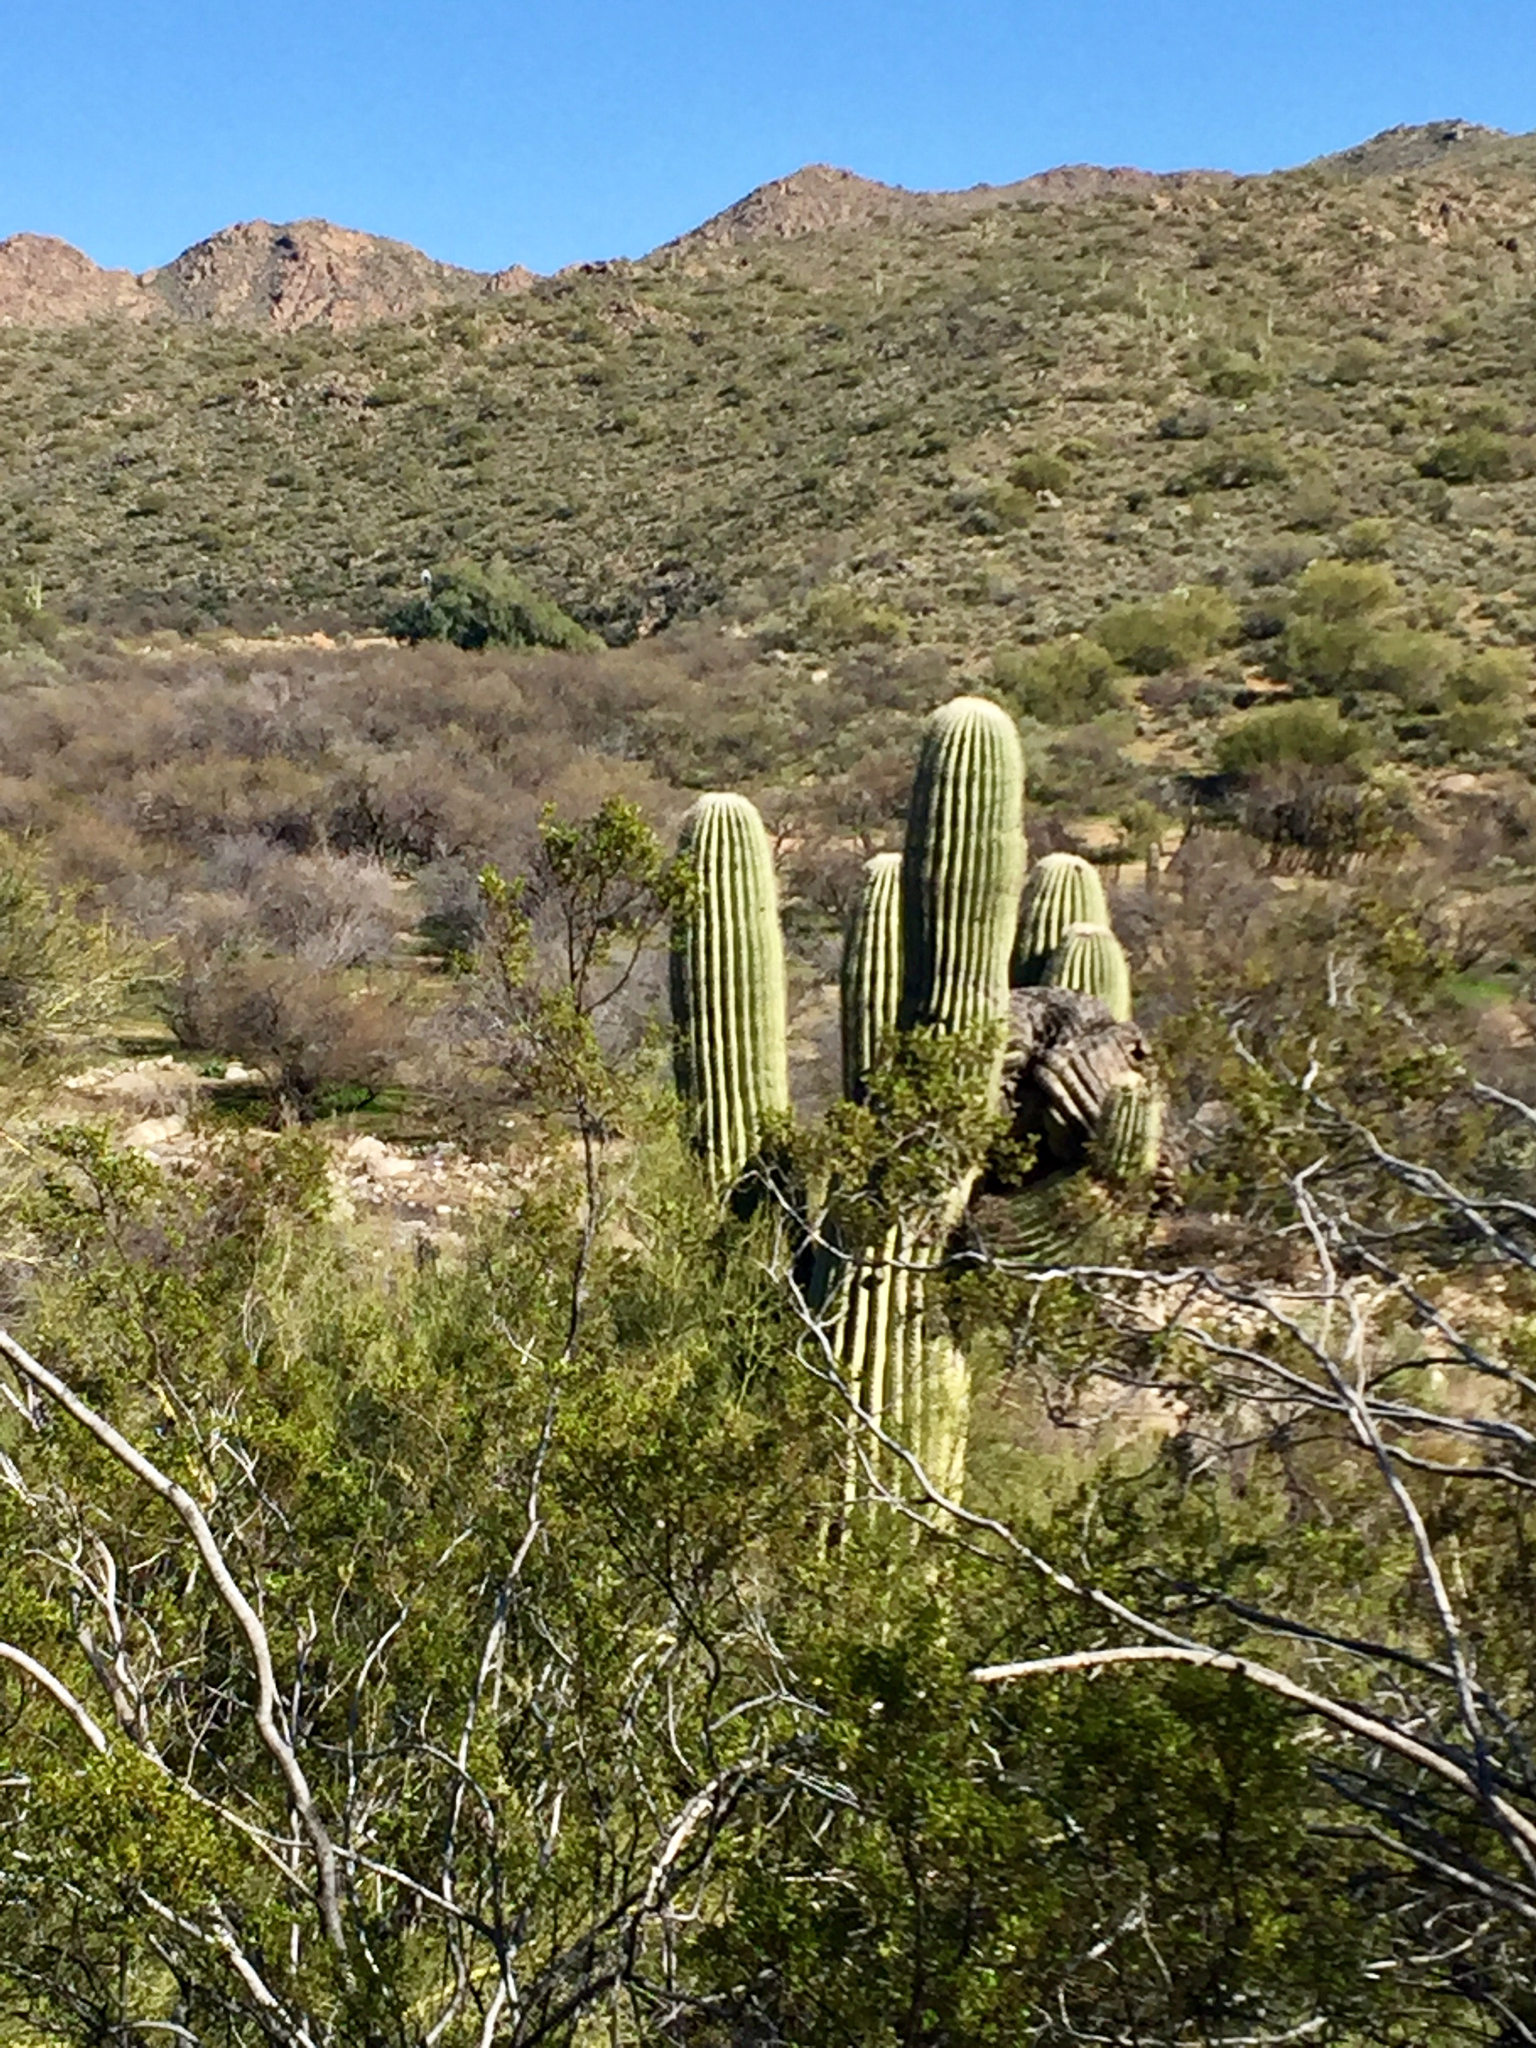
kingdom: Plantae
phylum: Tracheophyta
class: Magnoliopsida
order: Caryophyllales
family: Cactaceae
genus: Carnegiea
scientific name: Carnegiea gigantea
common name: Saguaro
